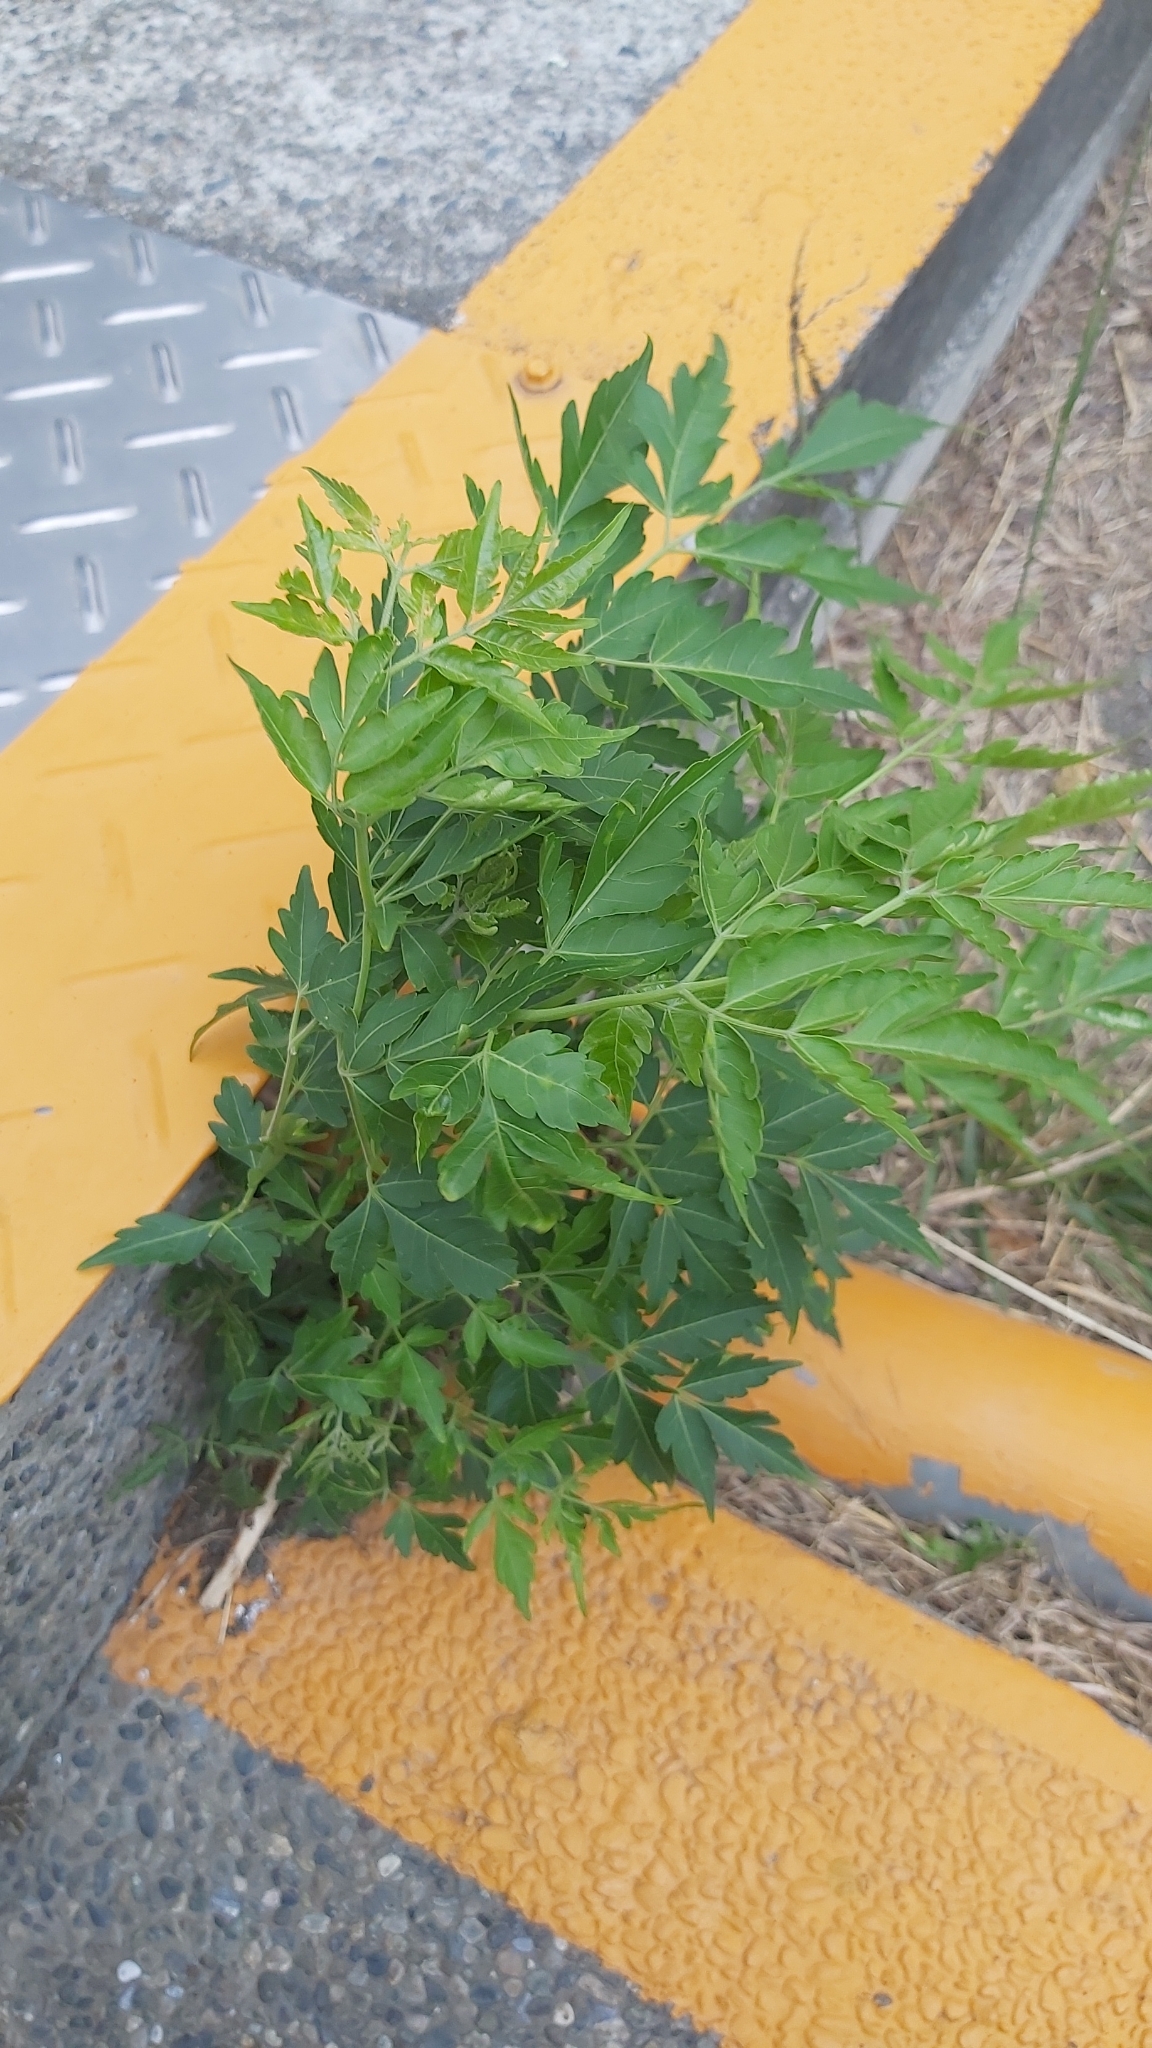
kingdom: Plantae
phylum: Tracheophyta
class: Magnoliopsida
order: Sapindales
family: Meliaceae
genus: Melia
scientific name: Melia azedarach
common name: Chinaberrytree
